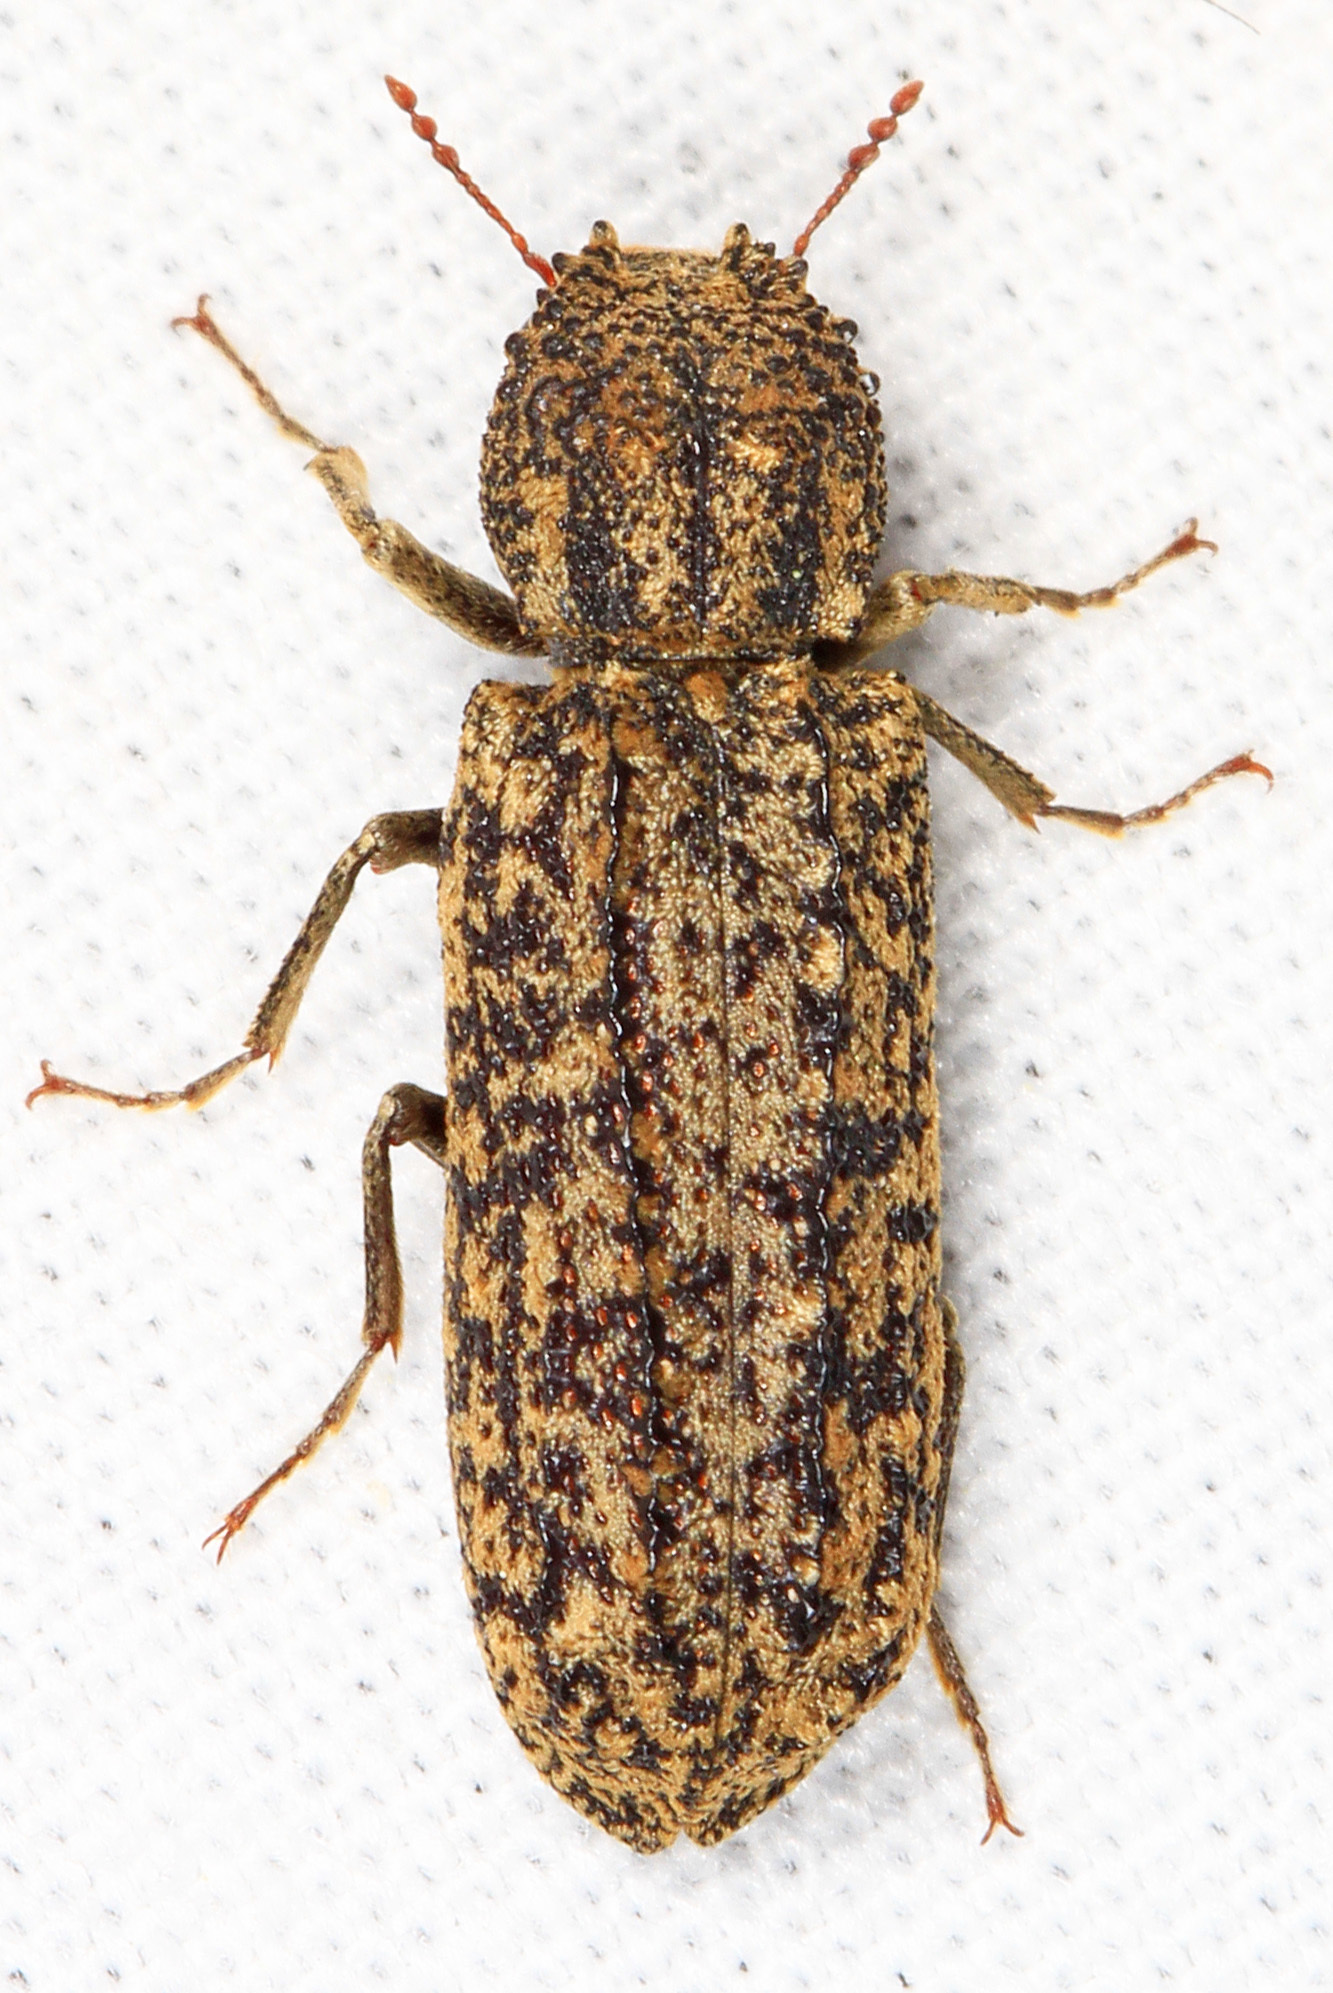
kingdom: Animalia
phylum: Arthropoda
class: Insecta
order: Coleoptera
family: Bostrichidae
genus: Lichenophanes
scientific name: Lichenophanes bicornis
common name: Two-horned powder-post beetle
